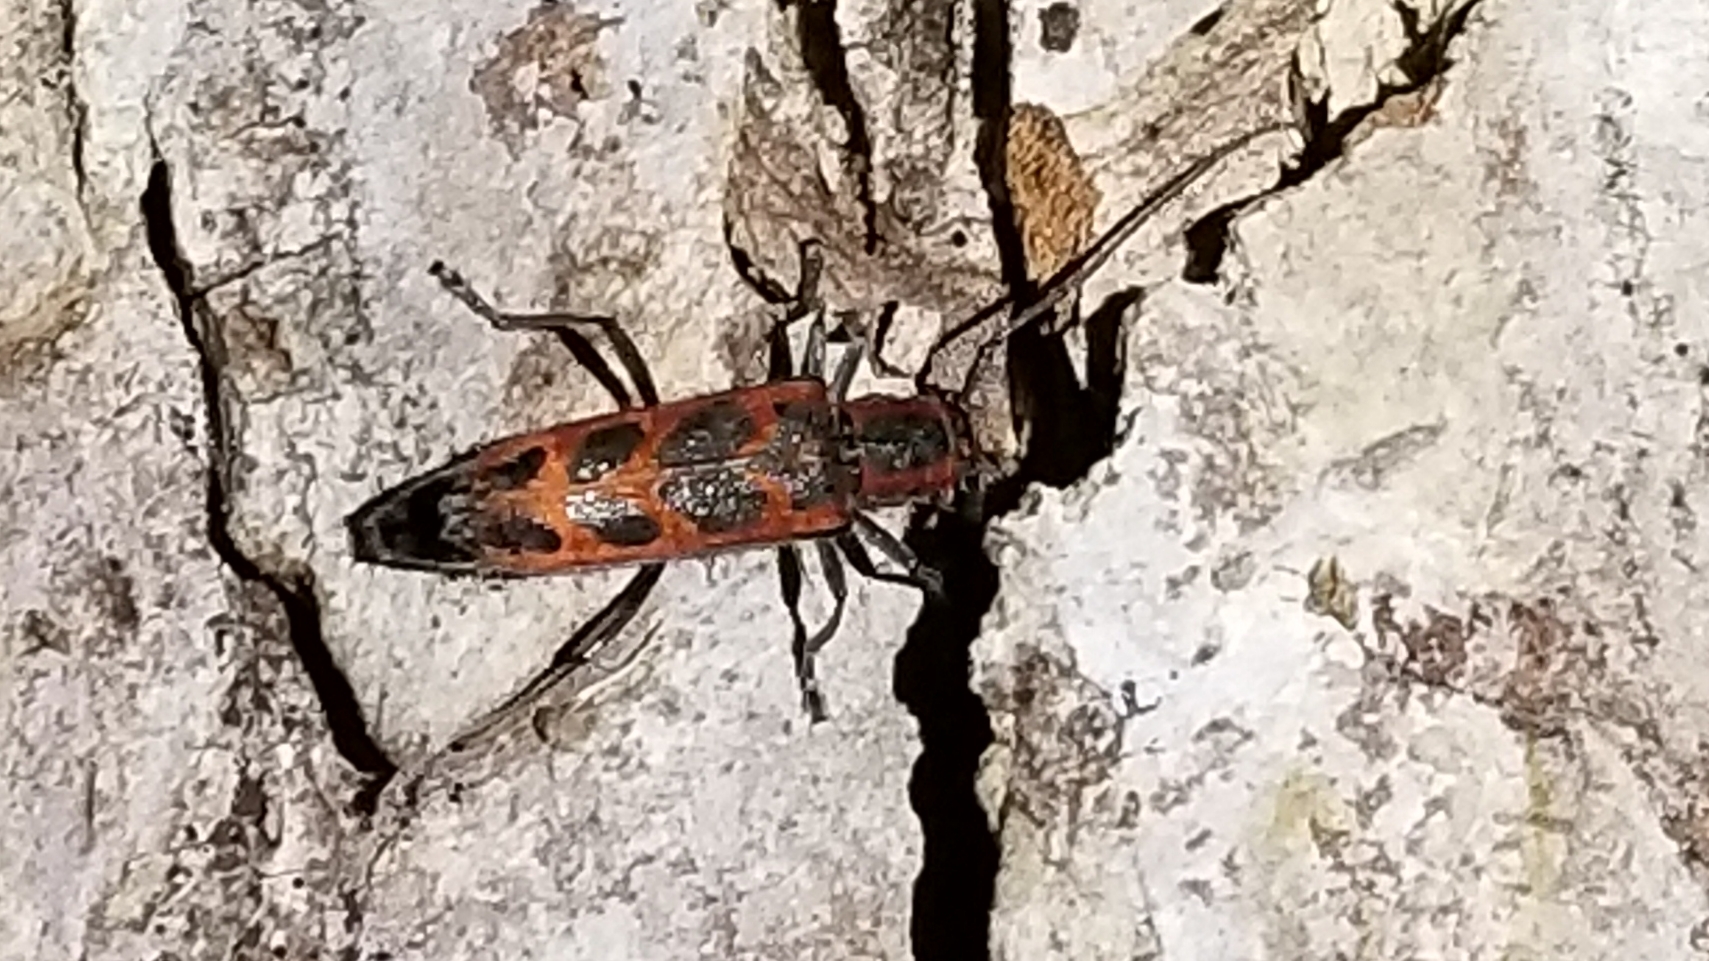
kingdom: Animalia
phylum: Arthropoda
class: Insecta
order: Coleoptera
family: Cerambycidae
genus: Saperda
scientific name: Saperda imitans
